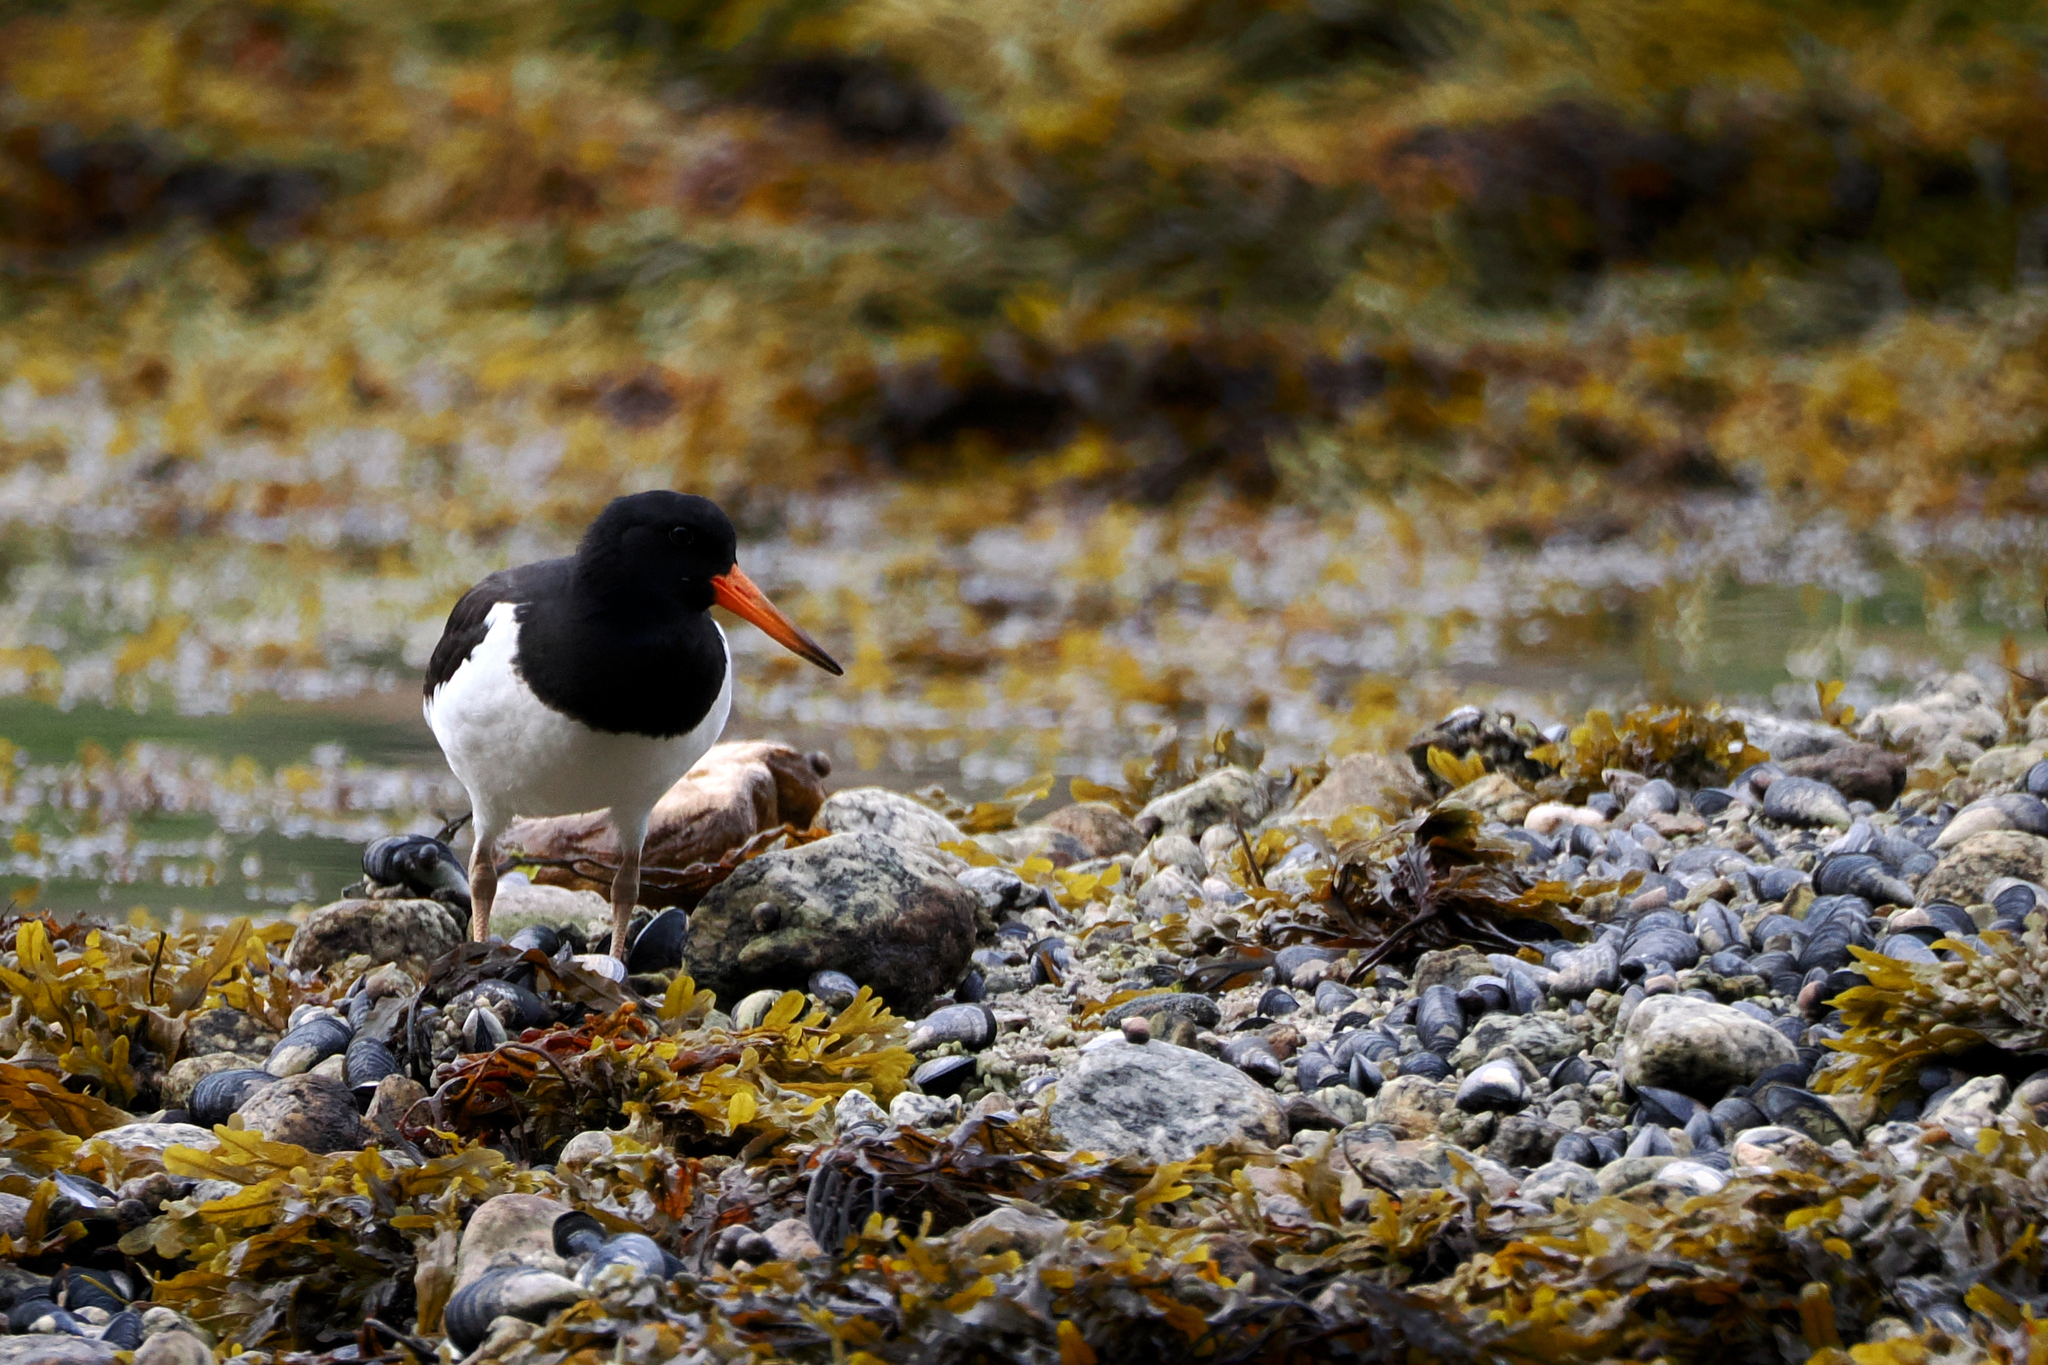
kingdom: Animalia
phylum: Chordata
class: Aves
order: Charadriiformes
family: Haematopodidae
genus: Haematopus
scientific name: Haematopus ostralegus
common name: Eurasian oystercatcher
